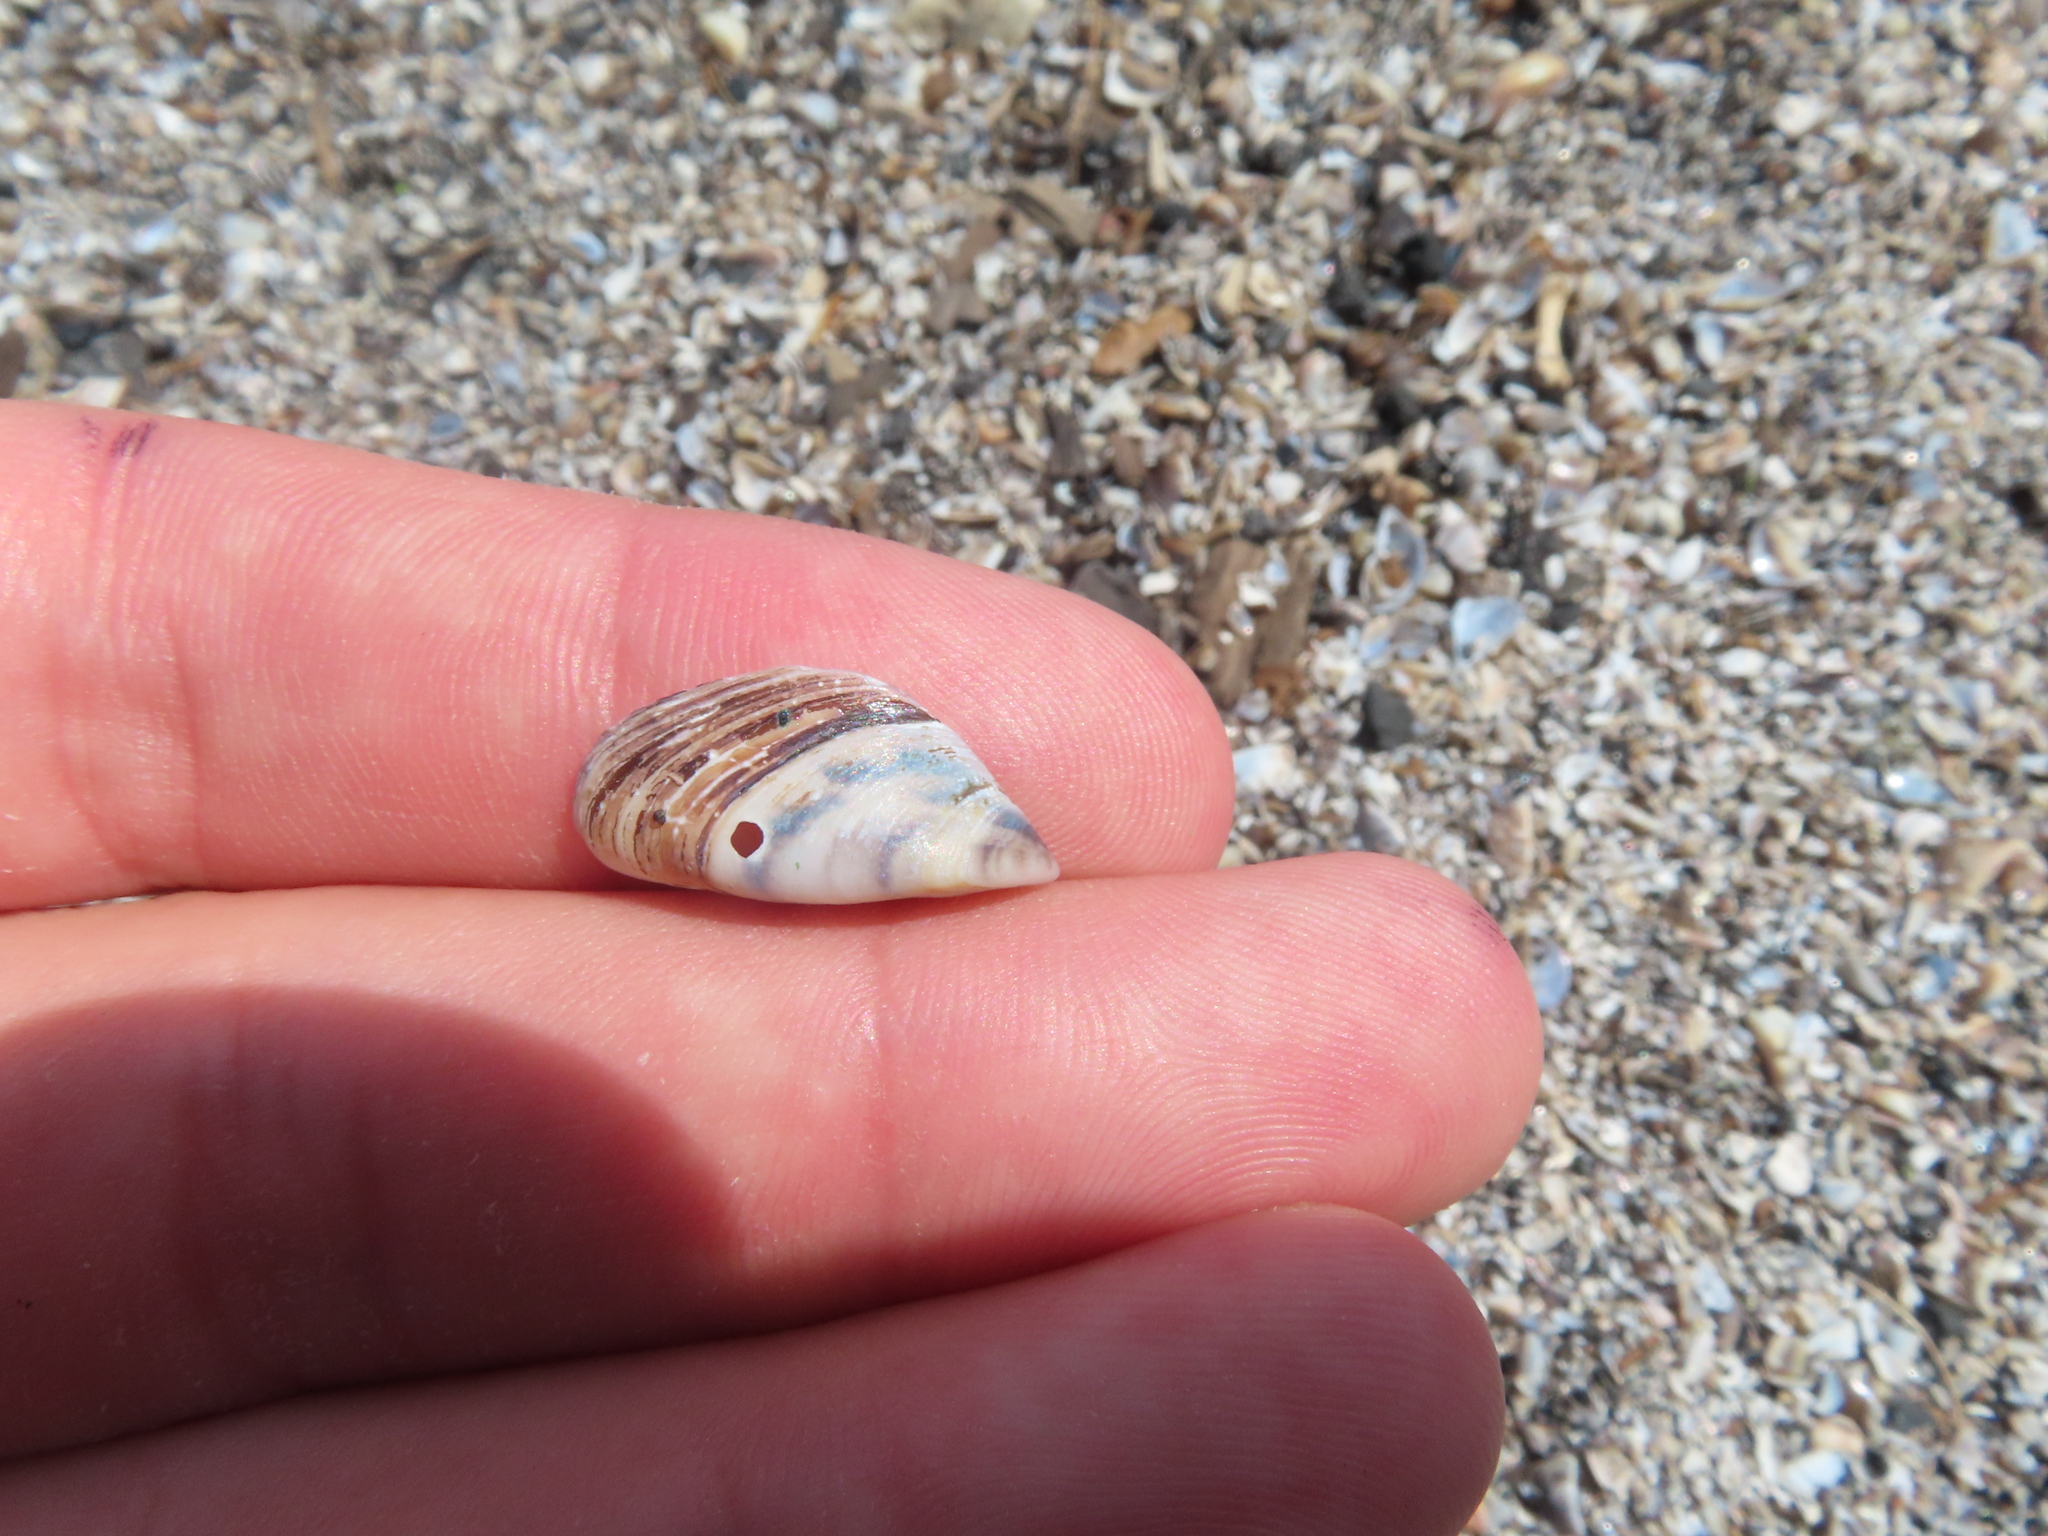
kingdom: Animalia
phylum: Mollusca
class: Bivalvia
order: Myida
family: Dreissenidae
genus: Dreissena
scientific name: Dreissena polymorpha
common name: Zebra mussel
